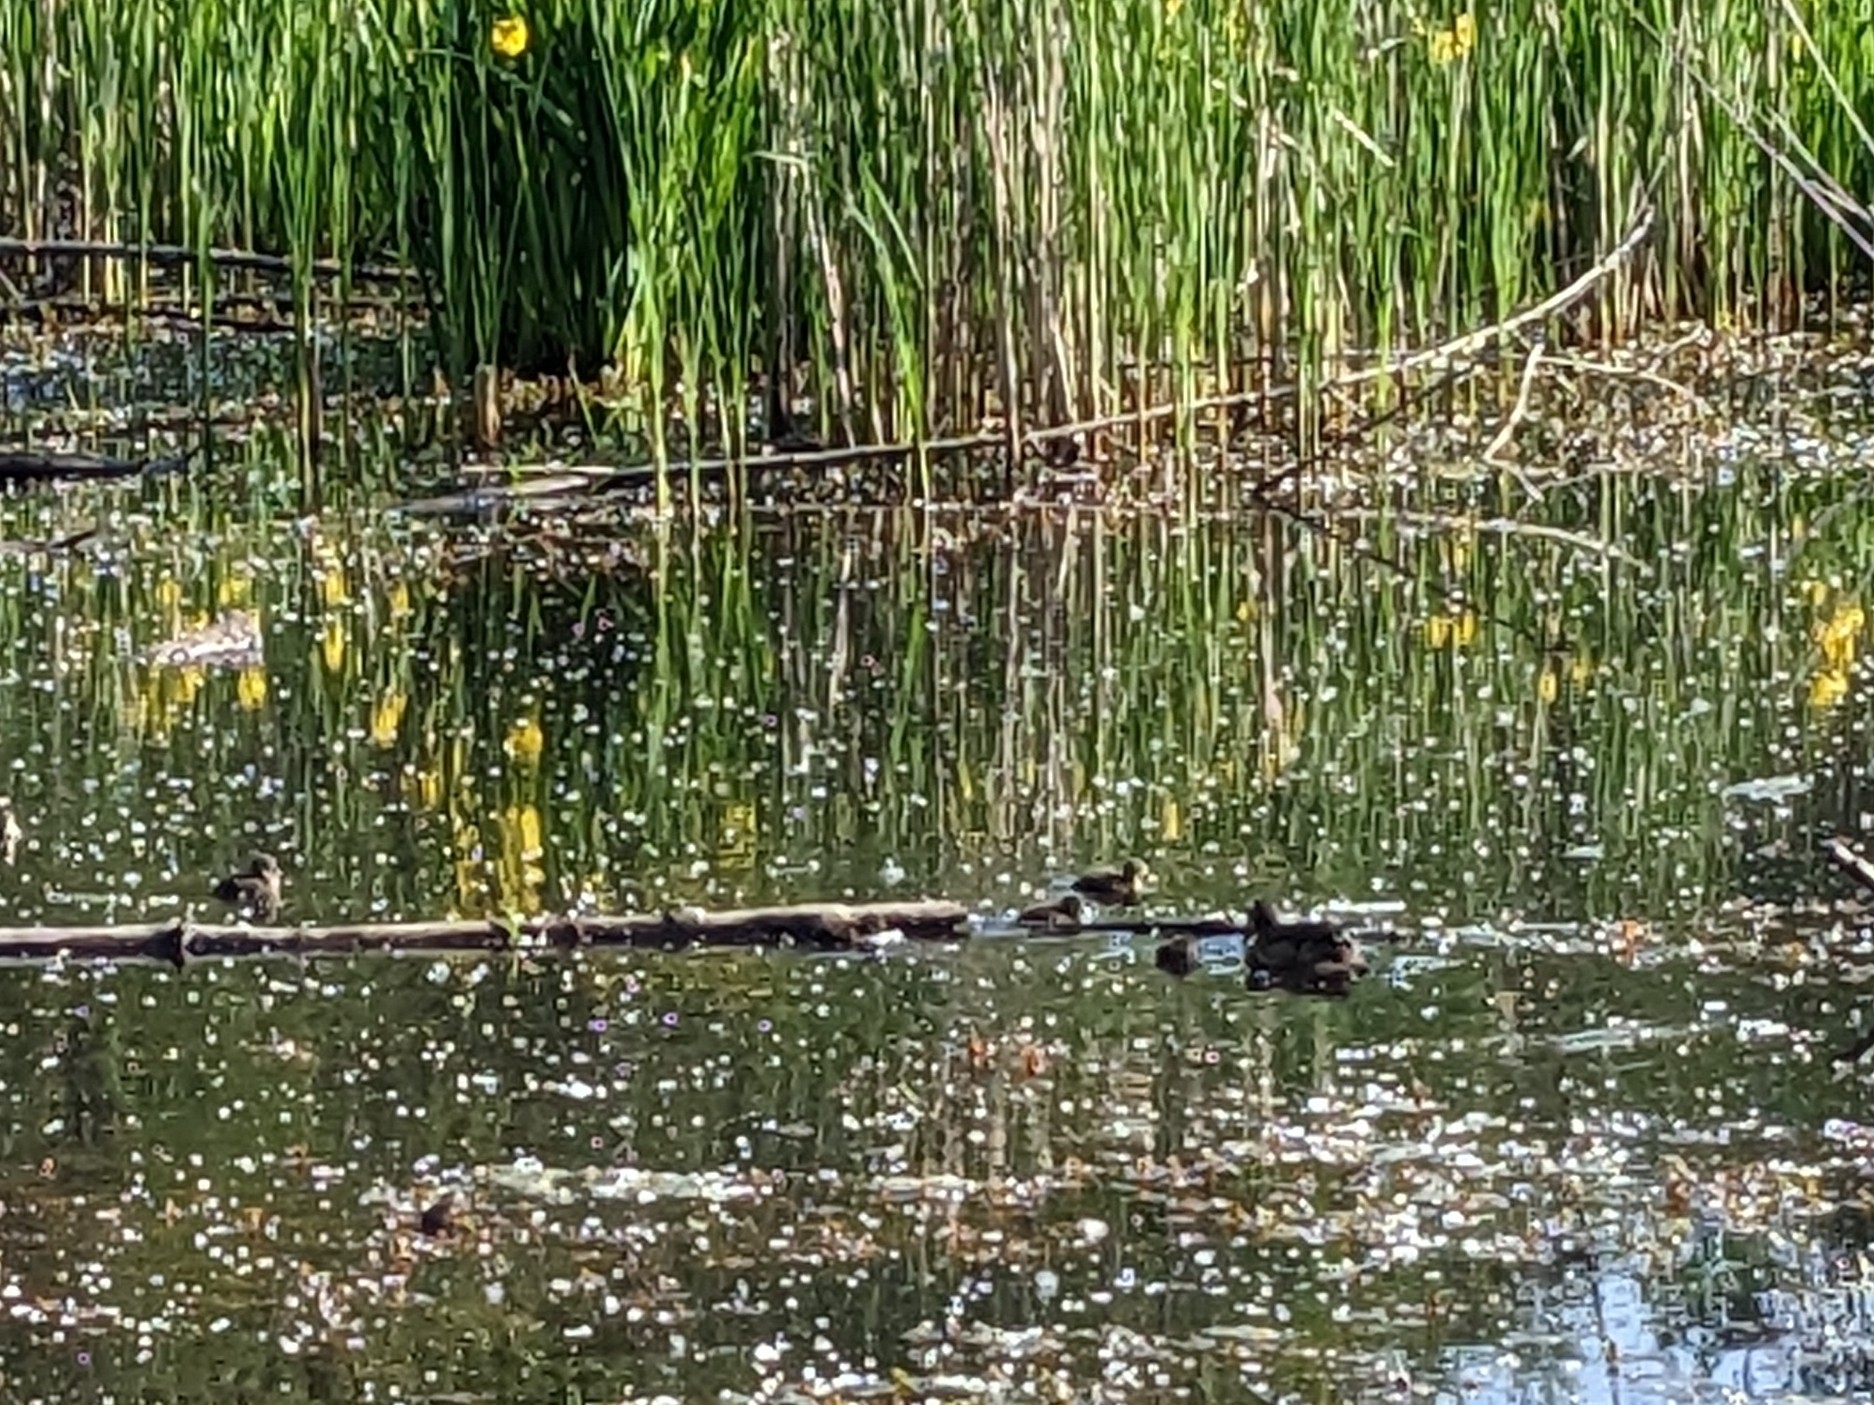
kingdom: Animalia
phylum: Chordata
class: Aves
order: Anseriformes
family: Anatidae
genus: Aix
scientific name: Aix sponsa
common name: Wood duck
